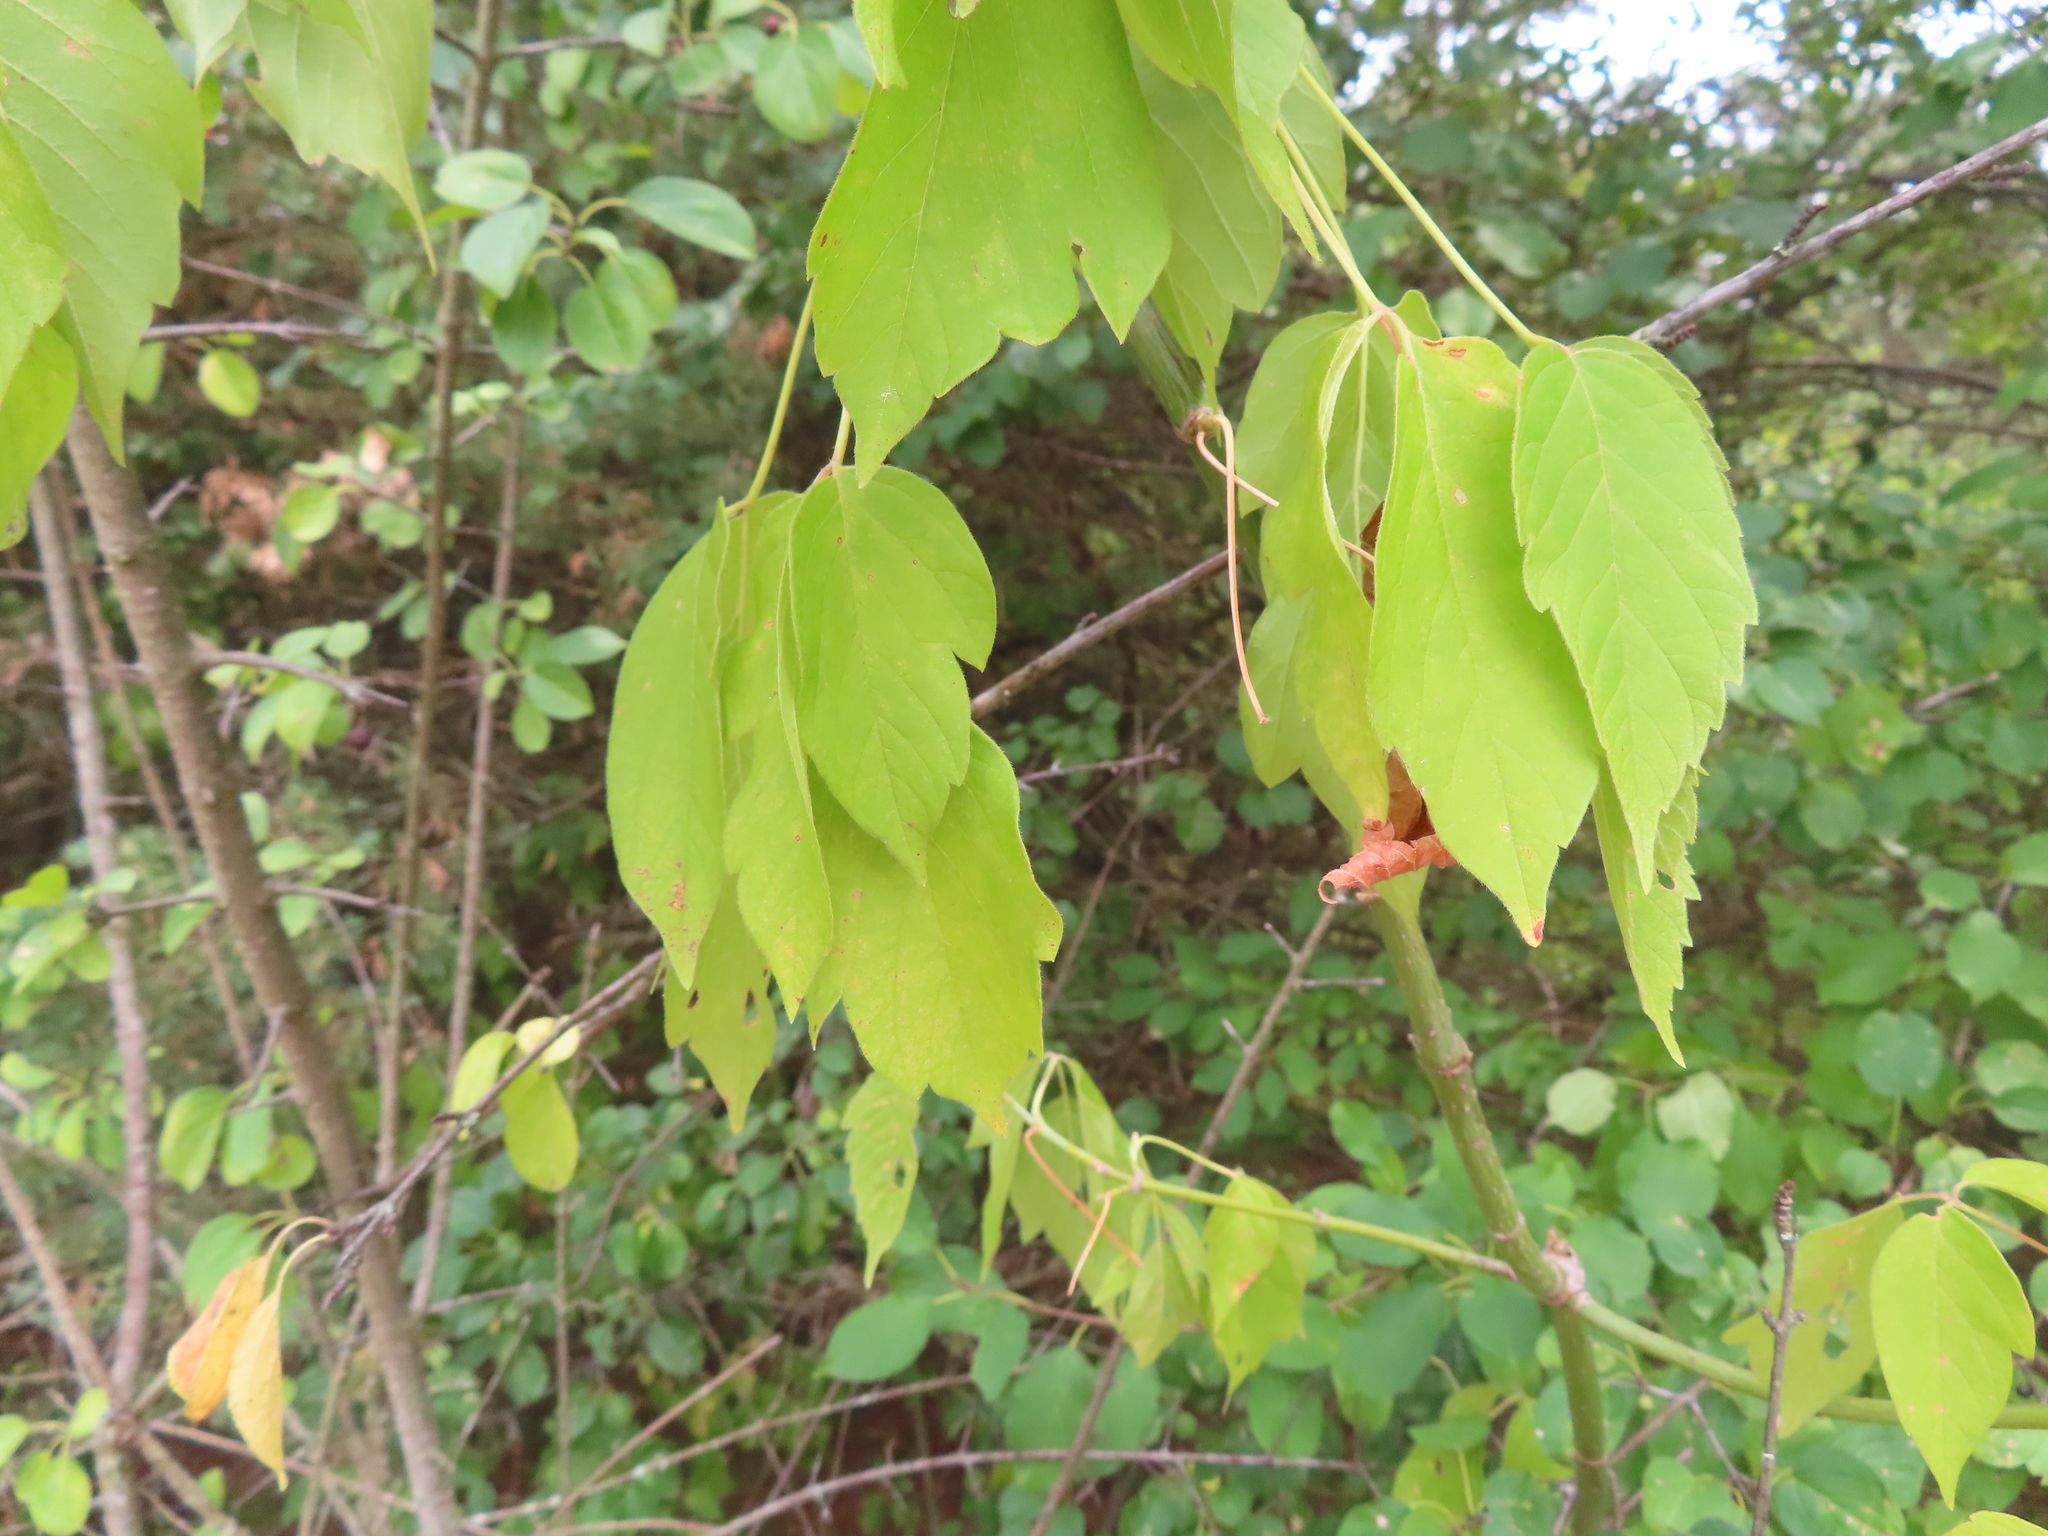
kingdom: Plantae
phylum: Tracheophyta
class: Magnoliopsida
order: Sapindales
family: Sapindaceae
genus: Acer
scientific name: Acer negundo
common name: Ashleaf maple
